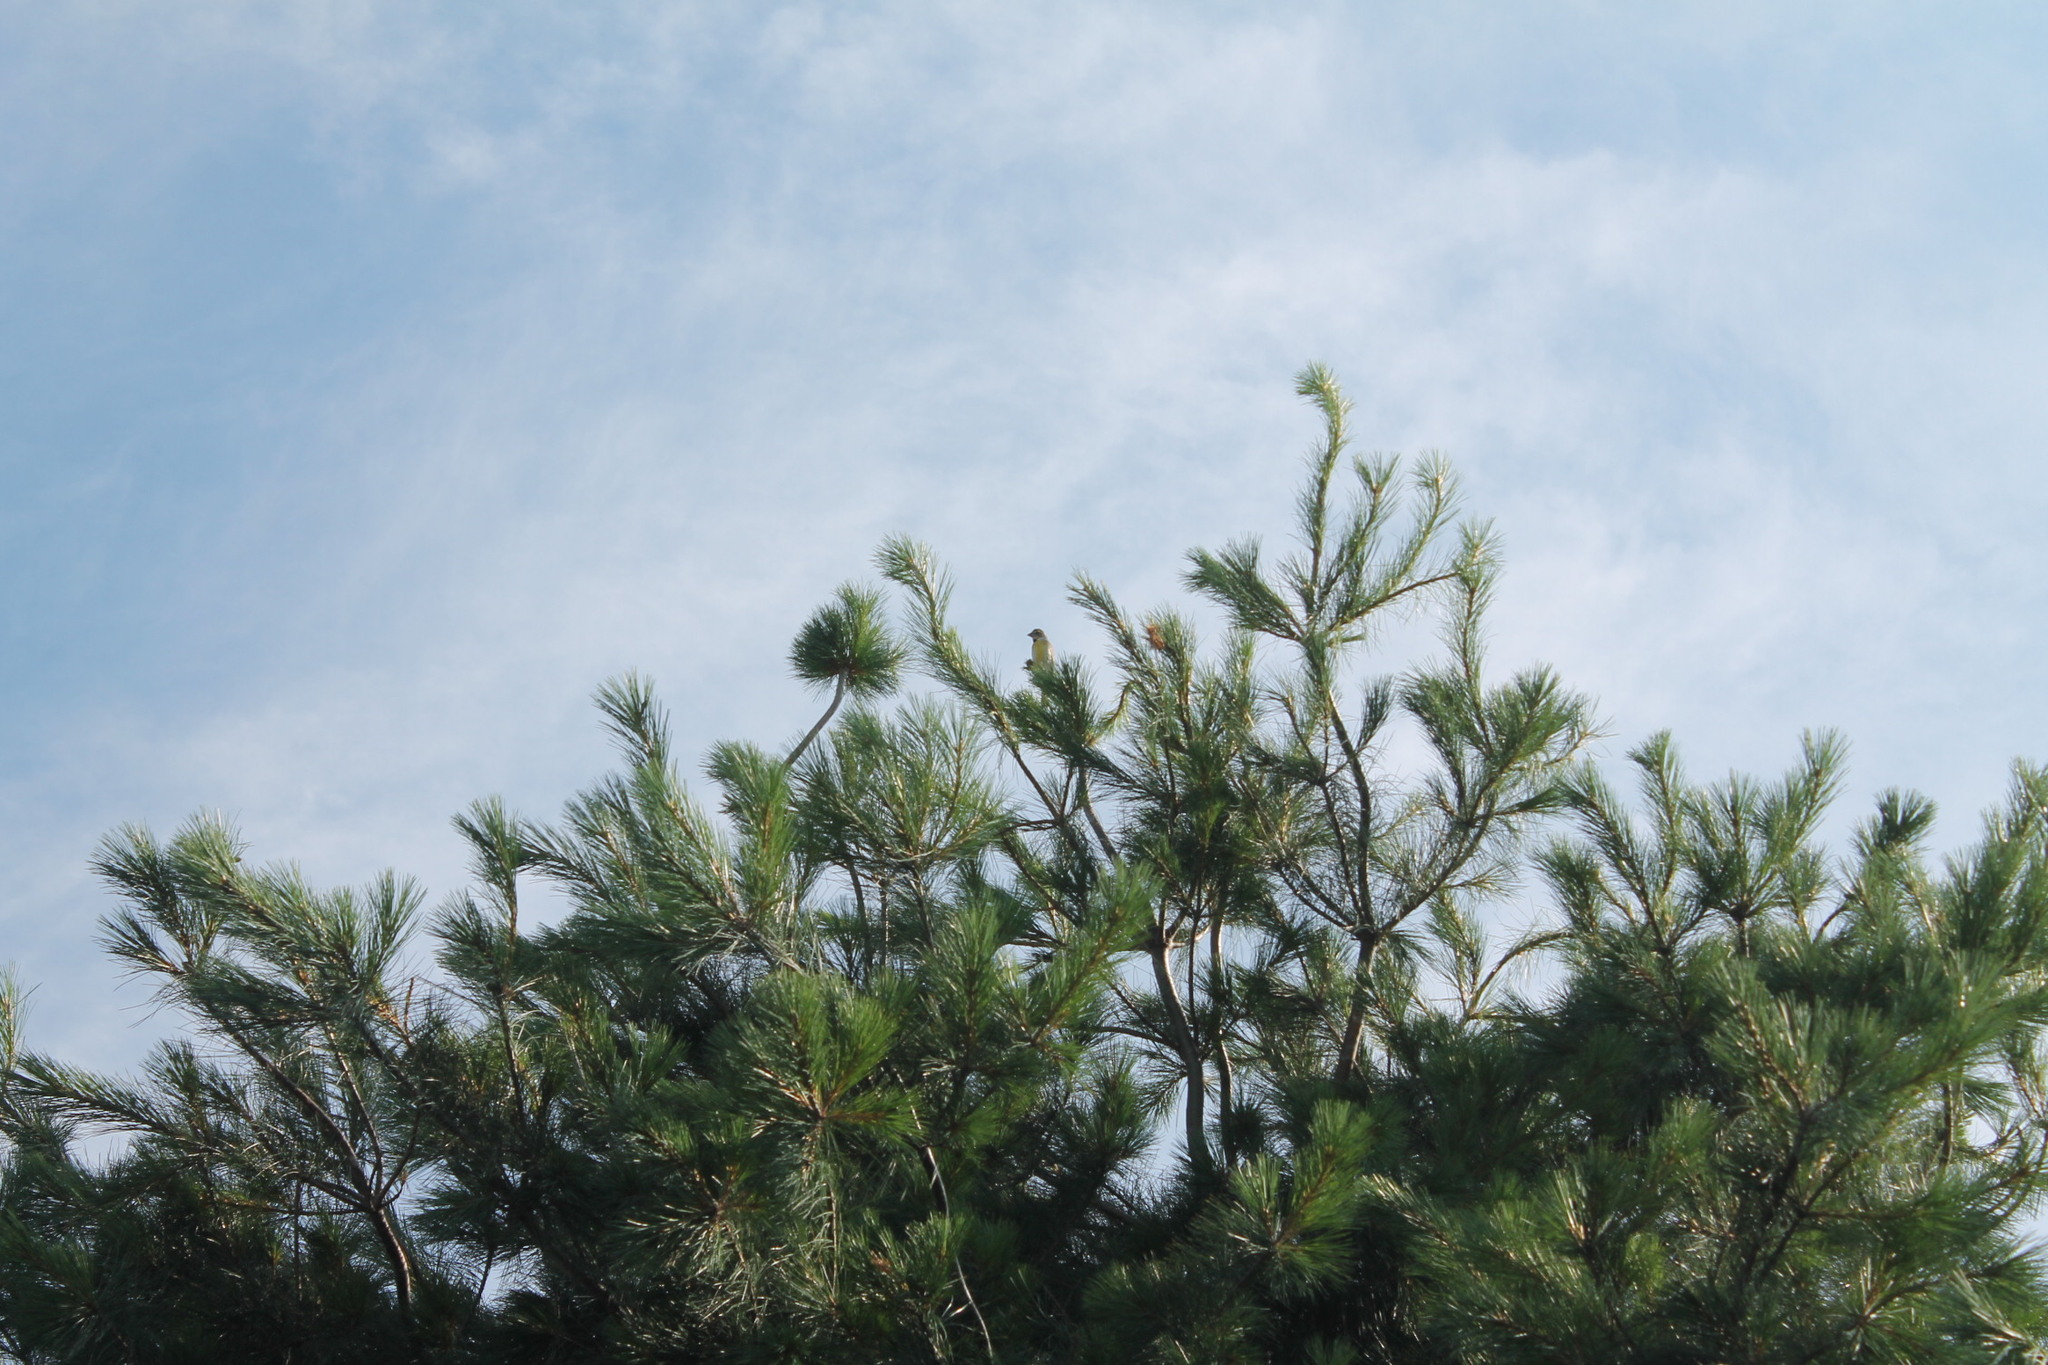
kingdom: Animalia
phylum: Chordata
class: Aves
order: Passeriformes
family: Cardinalidae
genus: Spiza
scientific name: Spiza americana
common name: Dickcissel
